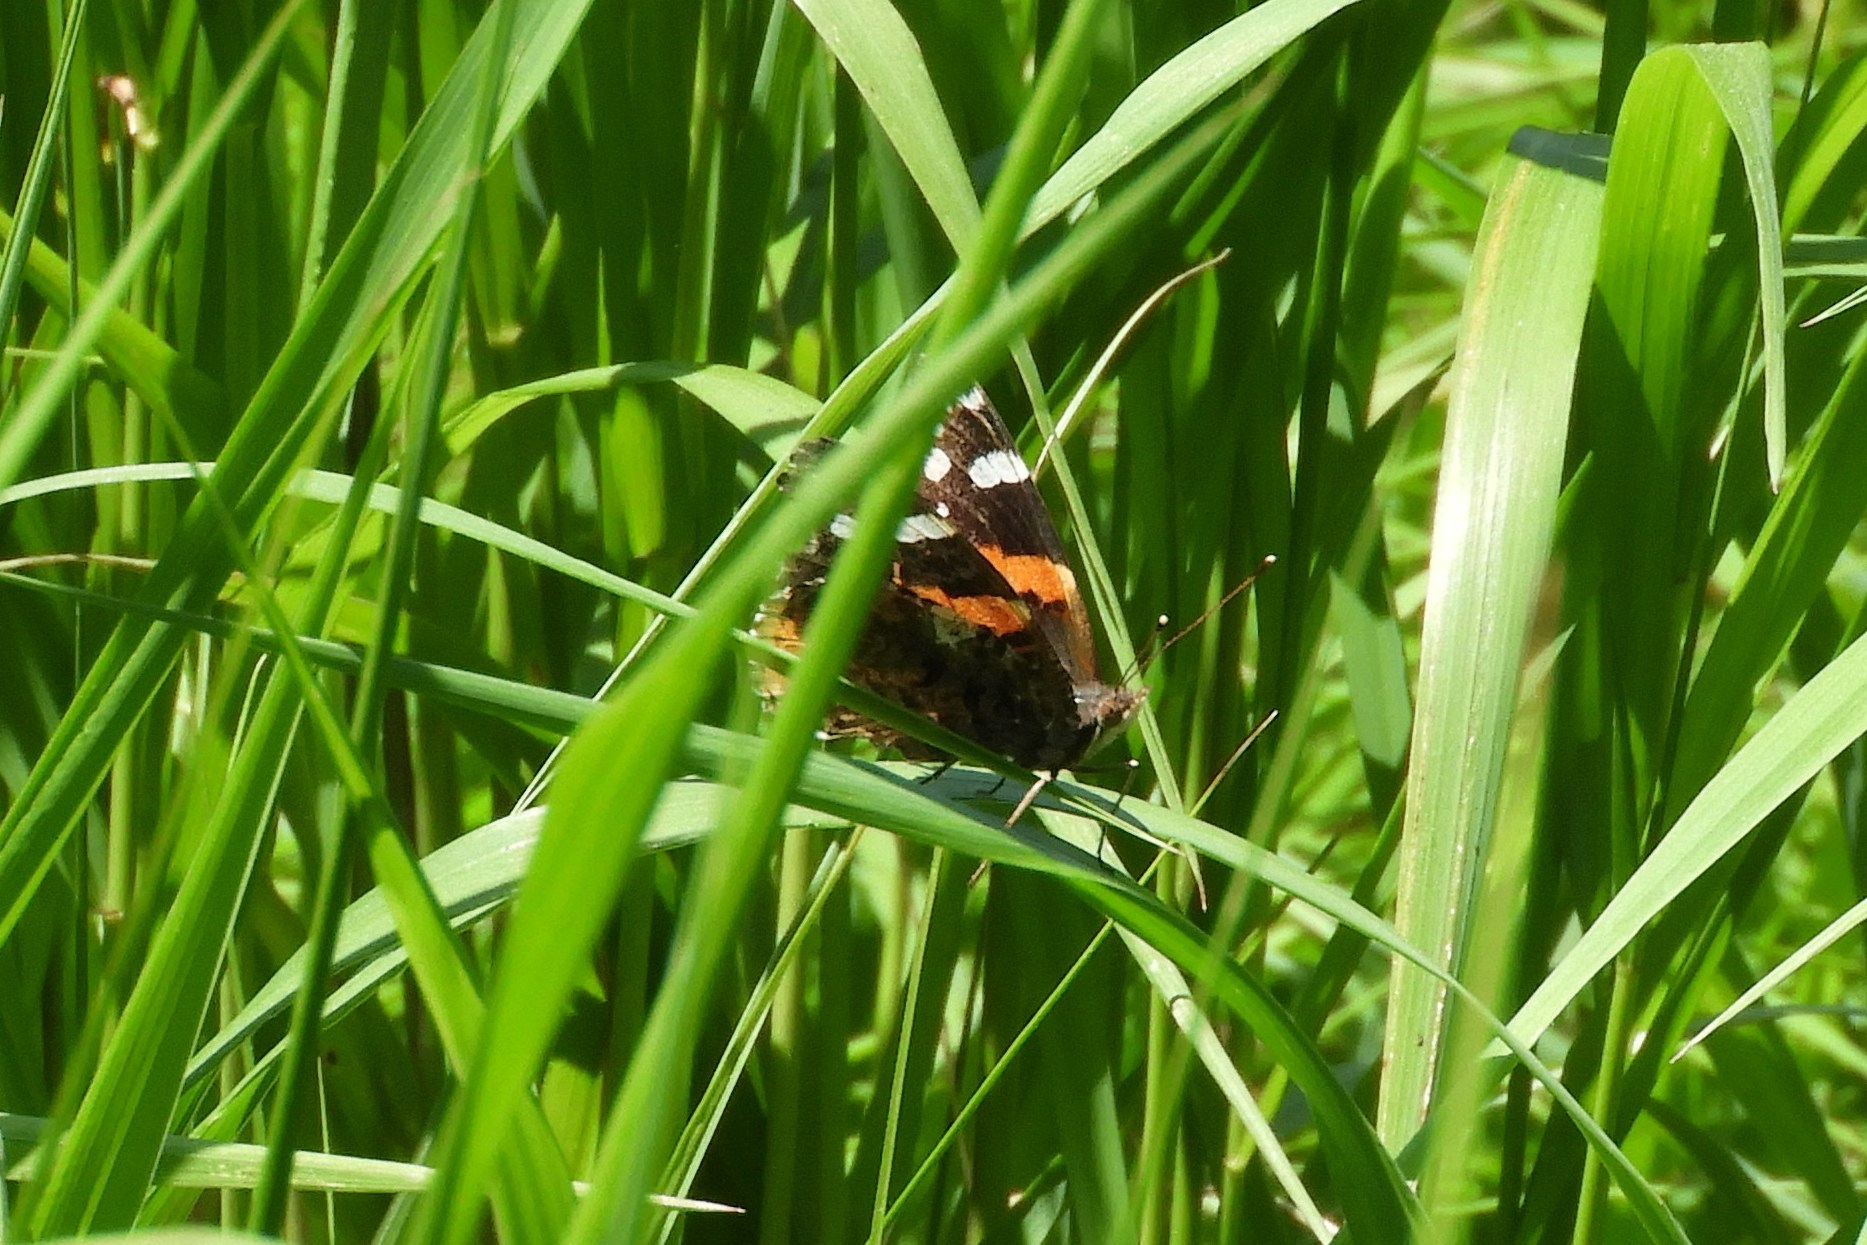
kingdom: Animalia
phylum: Arthropoda
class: Insecta
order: Lepidoptera
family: Nymphalidae
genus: Vanessa
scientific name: Vanessa atalanta
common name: Red admiral
